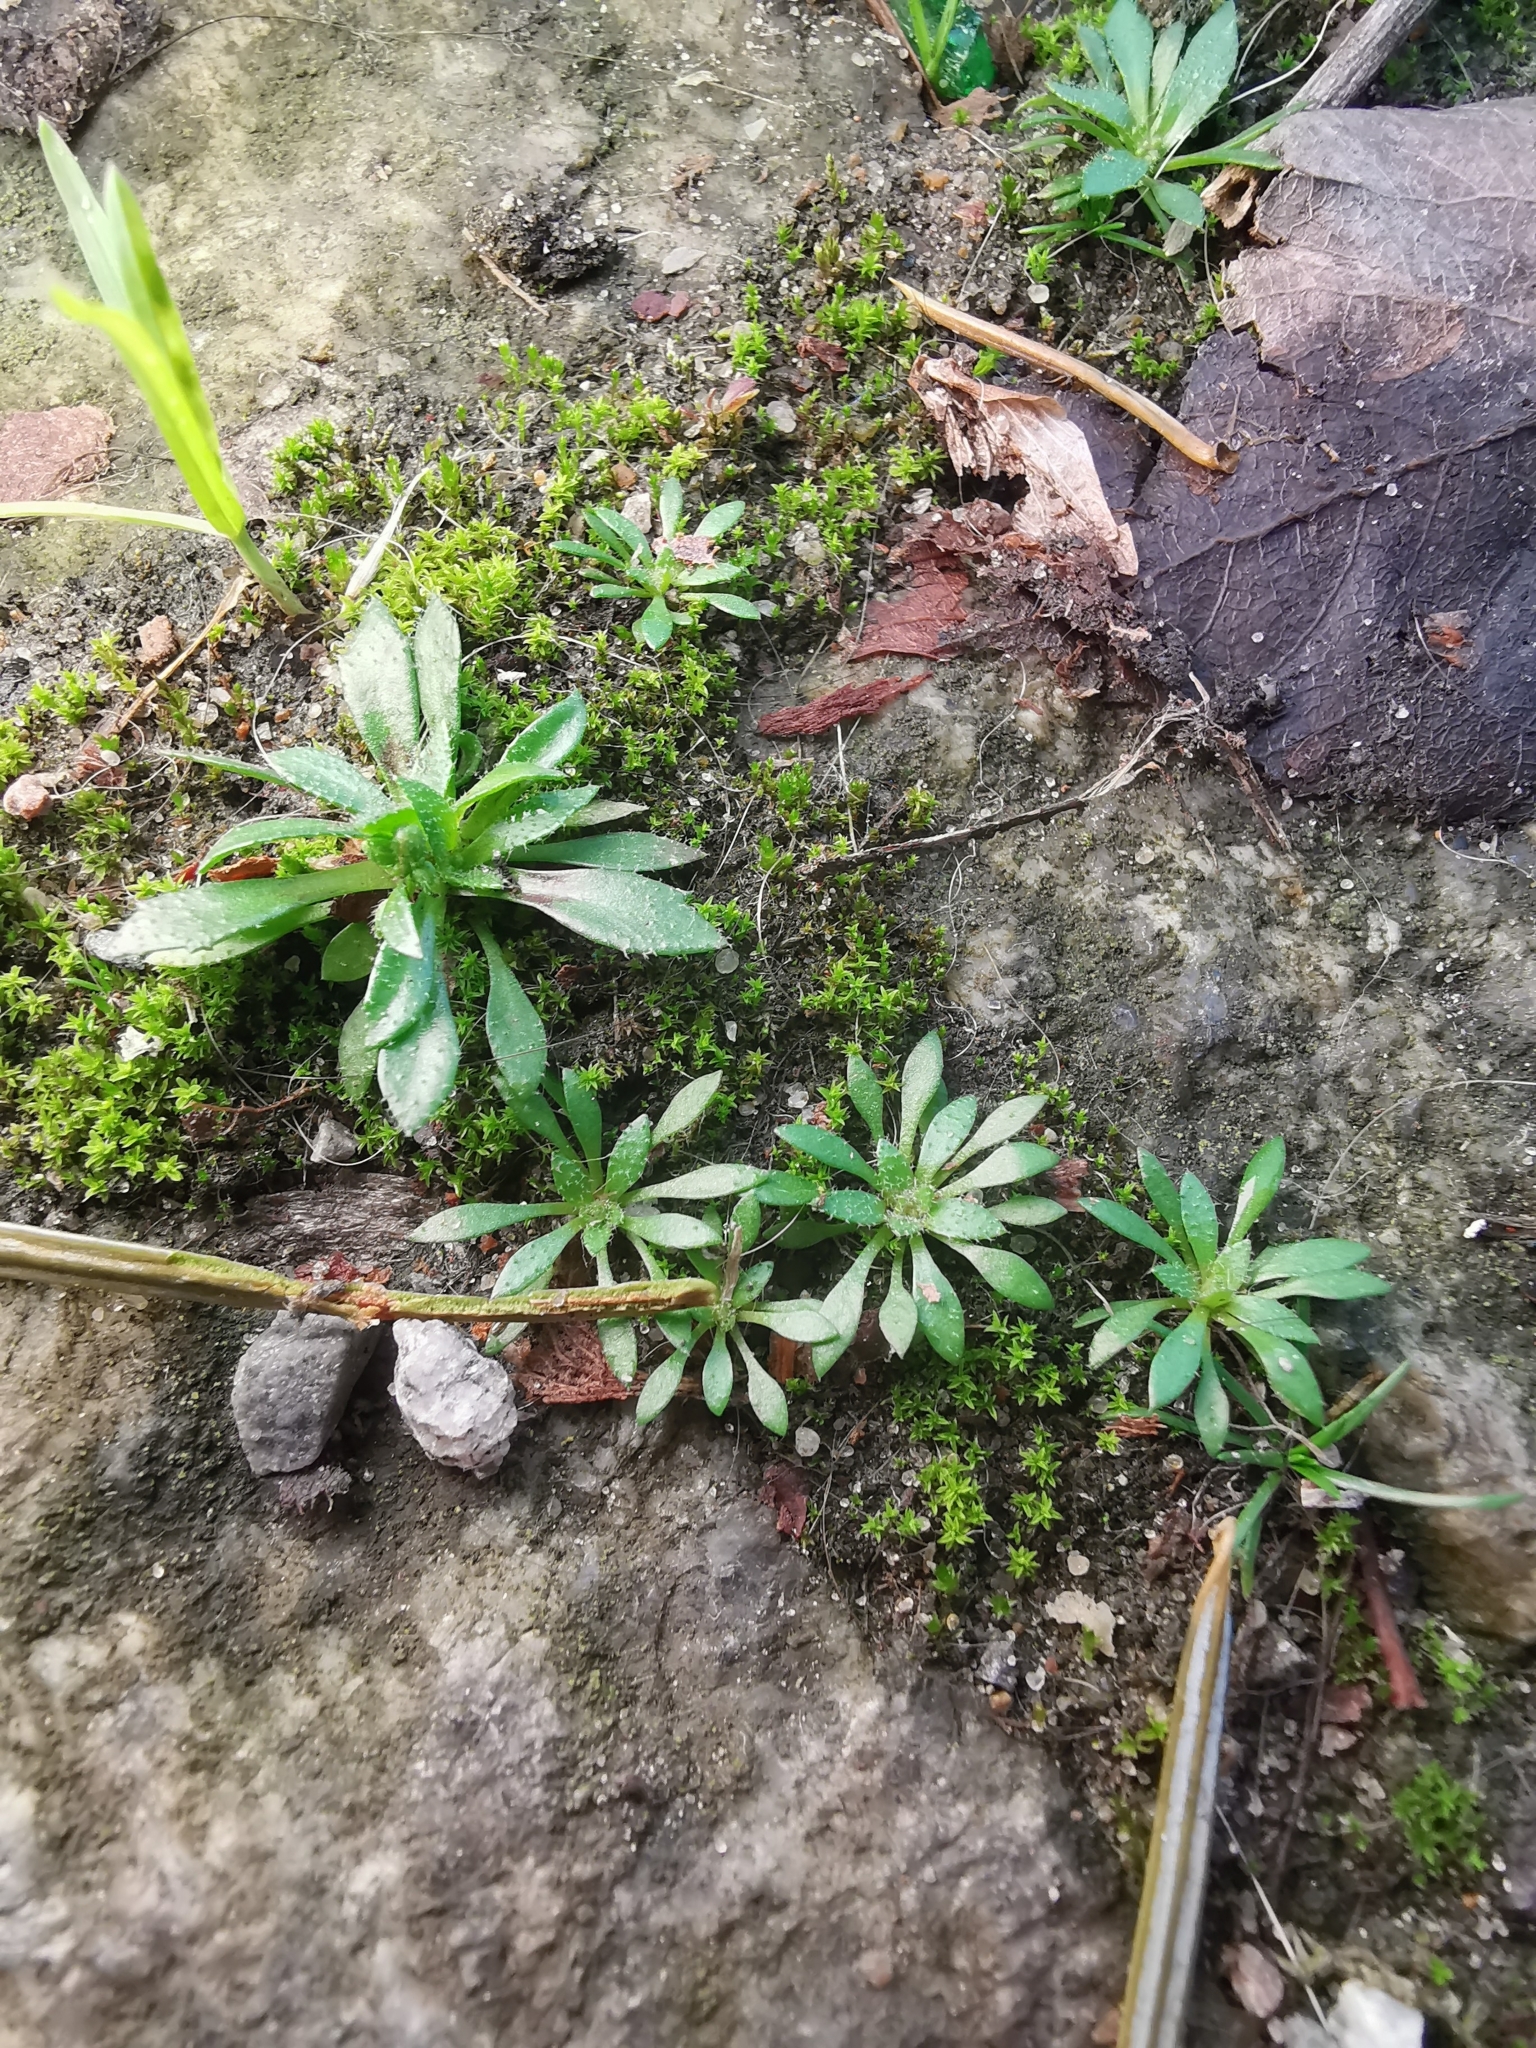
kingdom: Plantae
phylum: Tracheophyta
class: Magnoliopsida
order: Brassicales
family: Brassicaceae
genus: Draba
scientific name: Draba verna
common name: Spring draba
